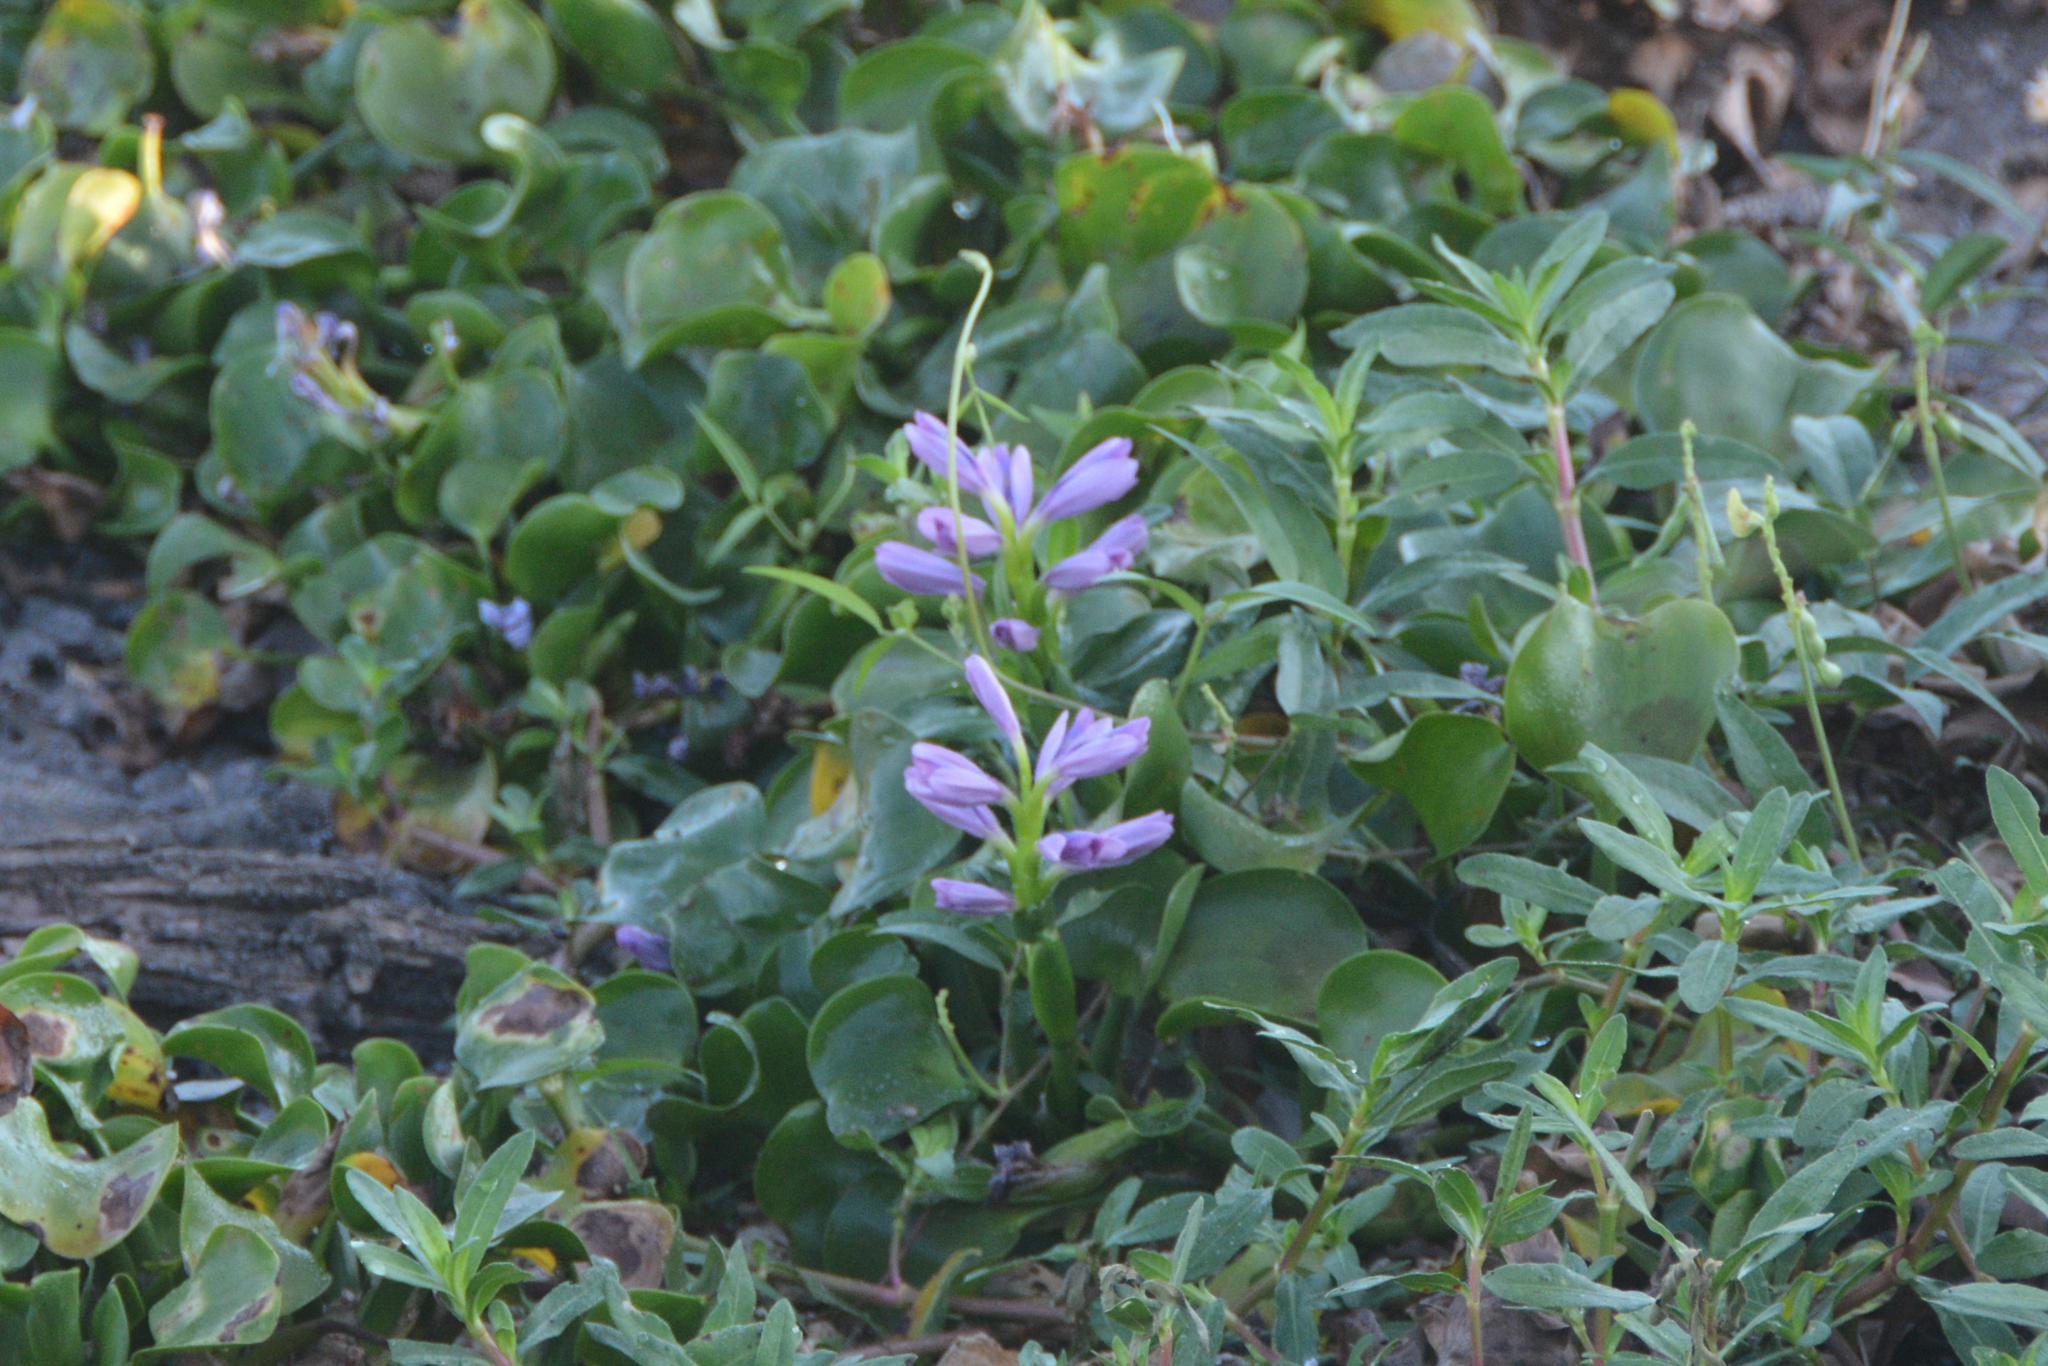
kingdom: Plantae
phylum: Tracheophyta
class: Liliopsida
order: Commelinales
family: Pontederiaceae
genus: Pontederia
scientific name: Pontederia crassipes
